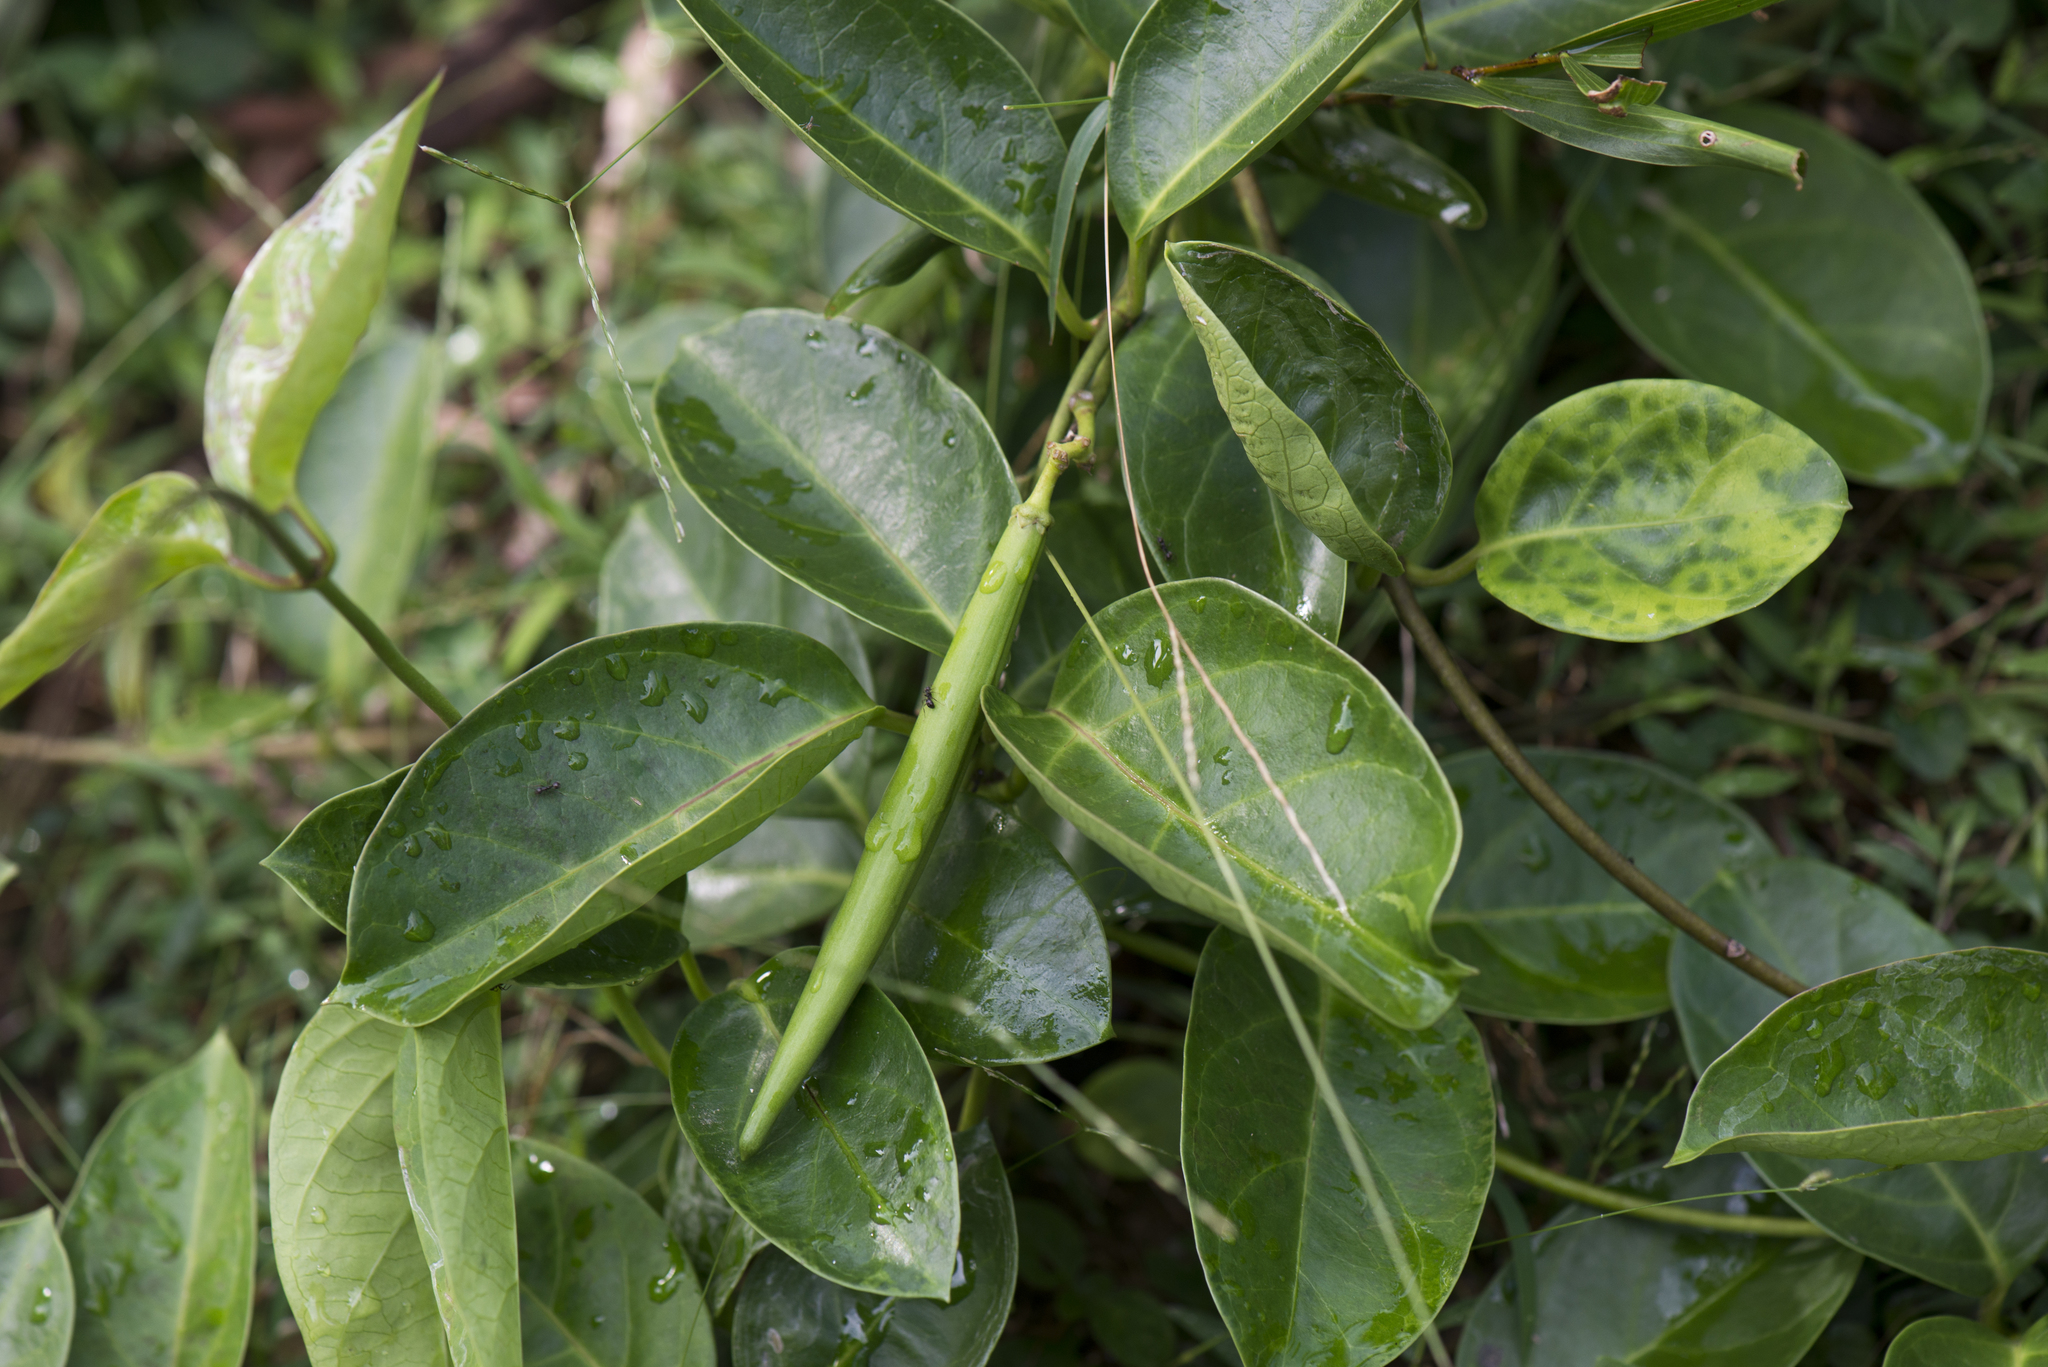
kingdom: Plantae
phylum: Tracheophyta
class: Magnoliopsida
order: Gentianales
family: Apocynaceae
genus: Parsonsia
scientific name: Parsonsia alboflavescens
